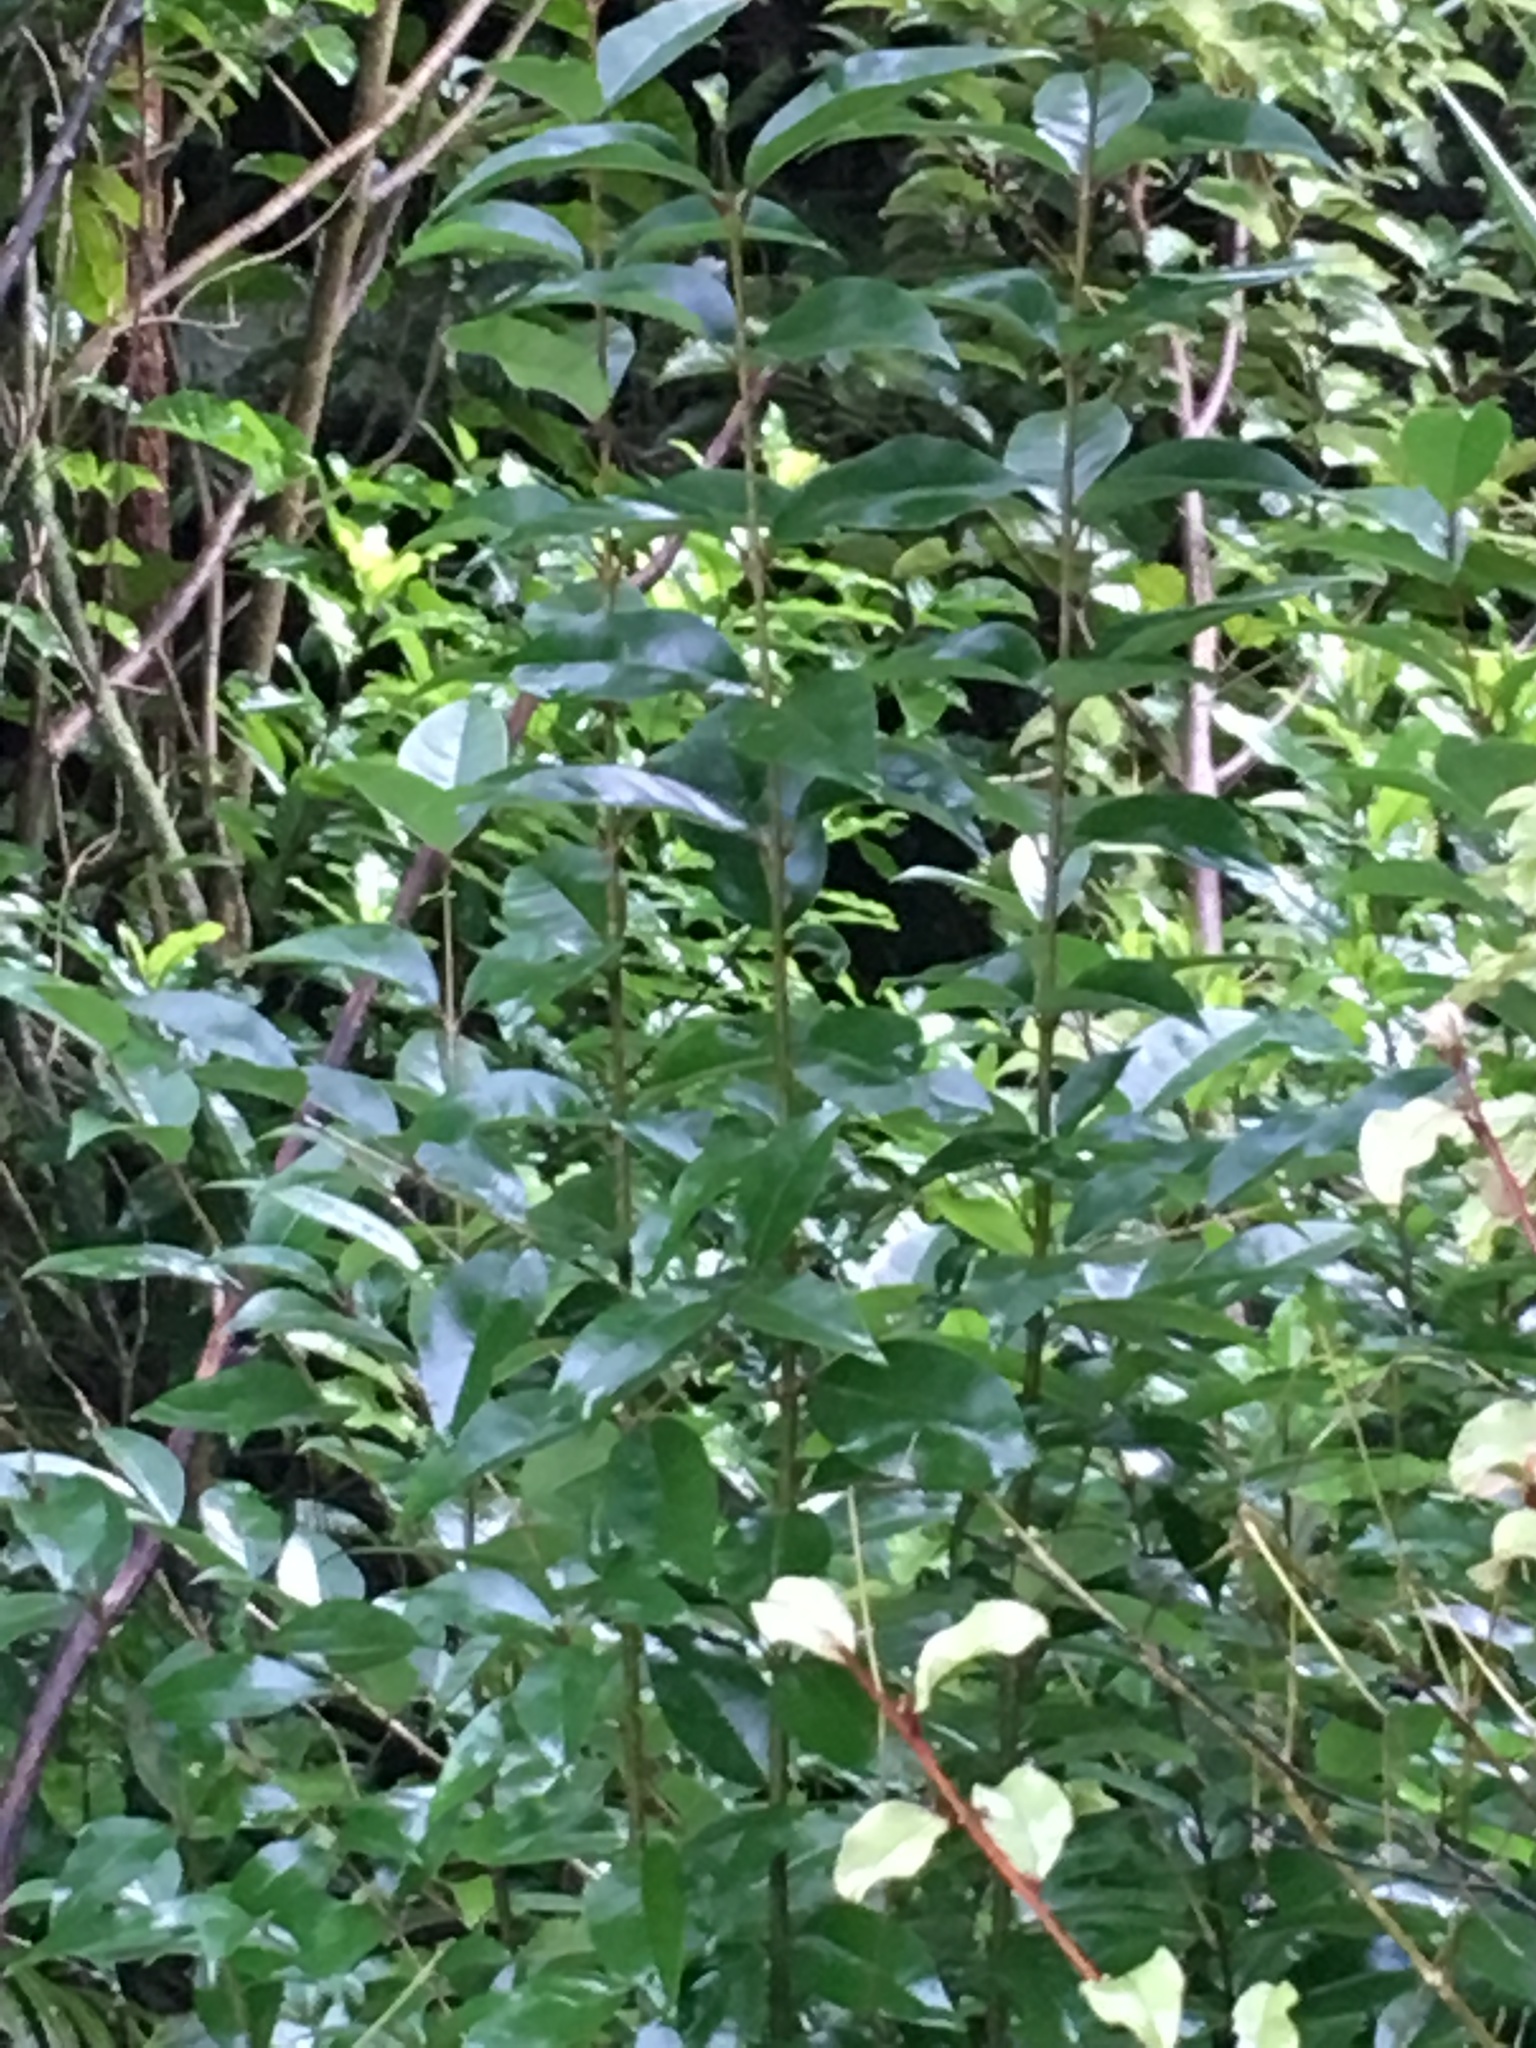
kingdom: Plantae
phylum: Tracheophyta
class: Magnoliopsida
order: Lamiales
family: Oleaceae
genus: Ligustrum
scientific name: Ligustrum lucidum
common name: Glossy privet
